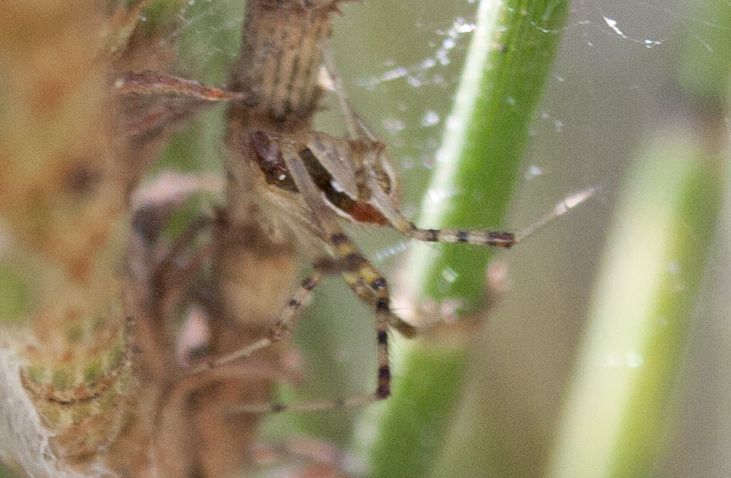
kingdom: Animalia
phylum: Arthropoda
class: Arachnida
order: Araneae
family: Theridiidae
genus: Theridion
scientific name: Theridion pyramidale
